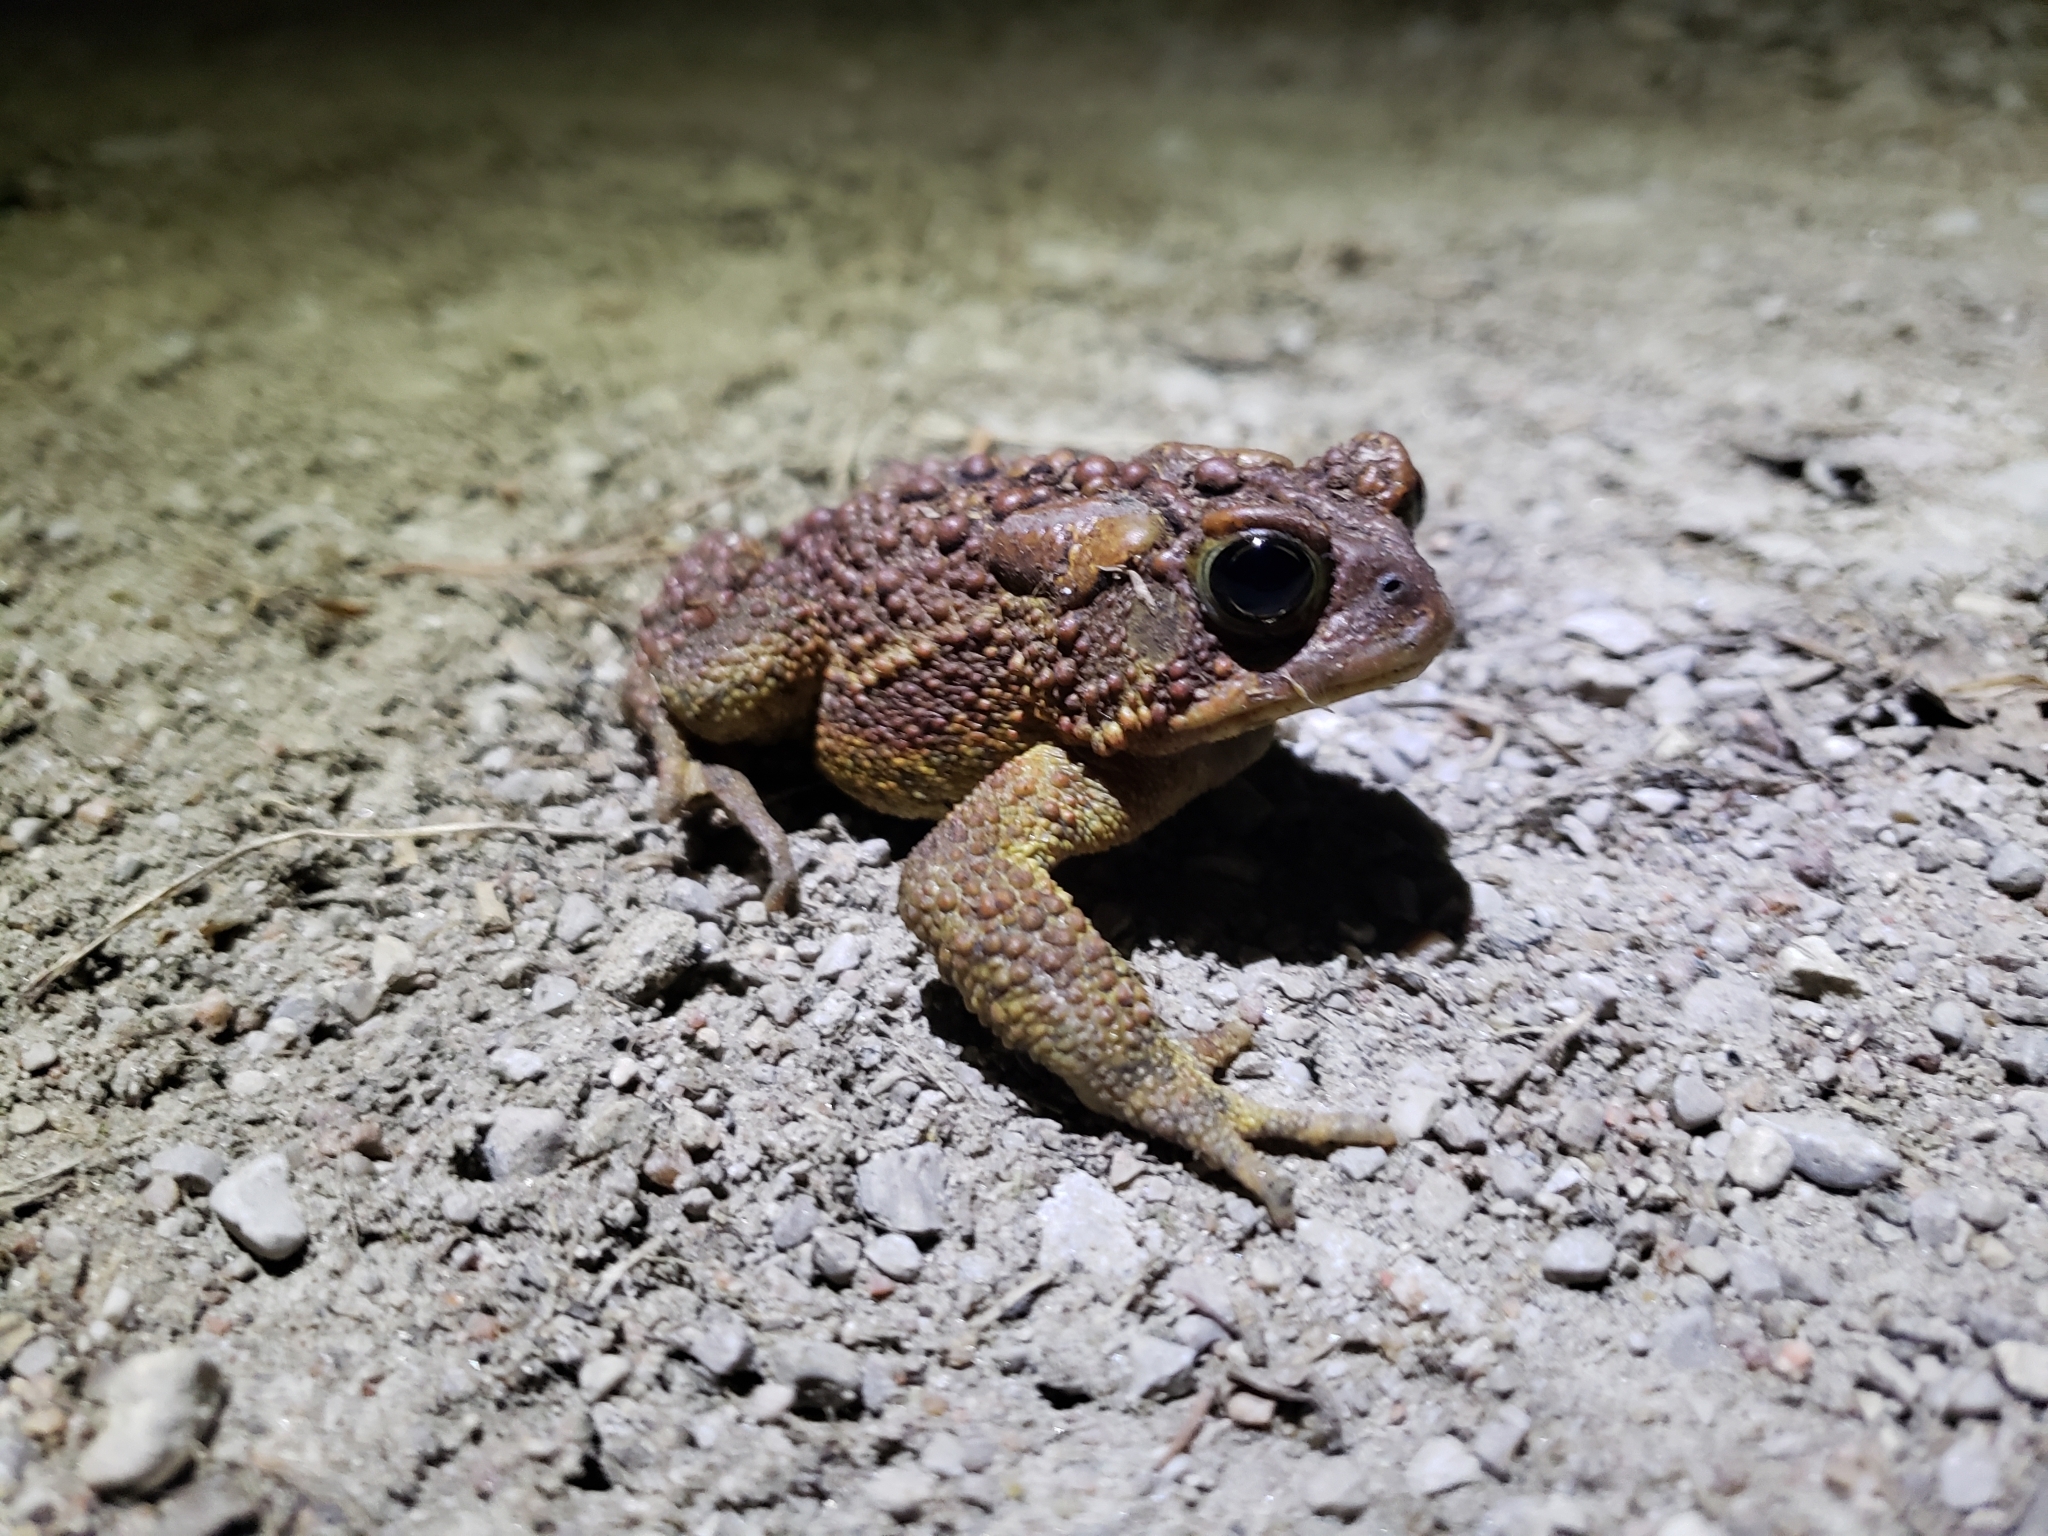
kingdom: Animalia
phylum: Chordata
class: Amphibia
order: Anura
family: Bufonidae
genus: Anaxyrus
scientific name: Anaxyrus americanus
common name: American toad
